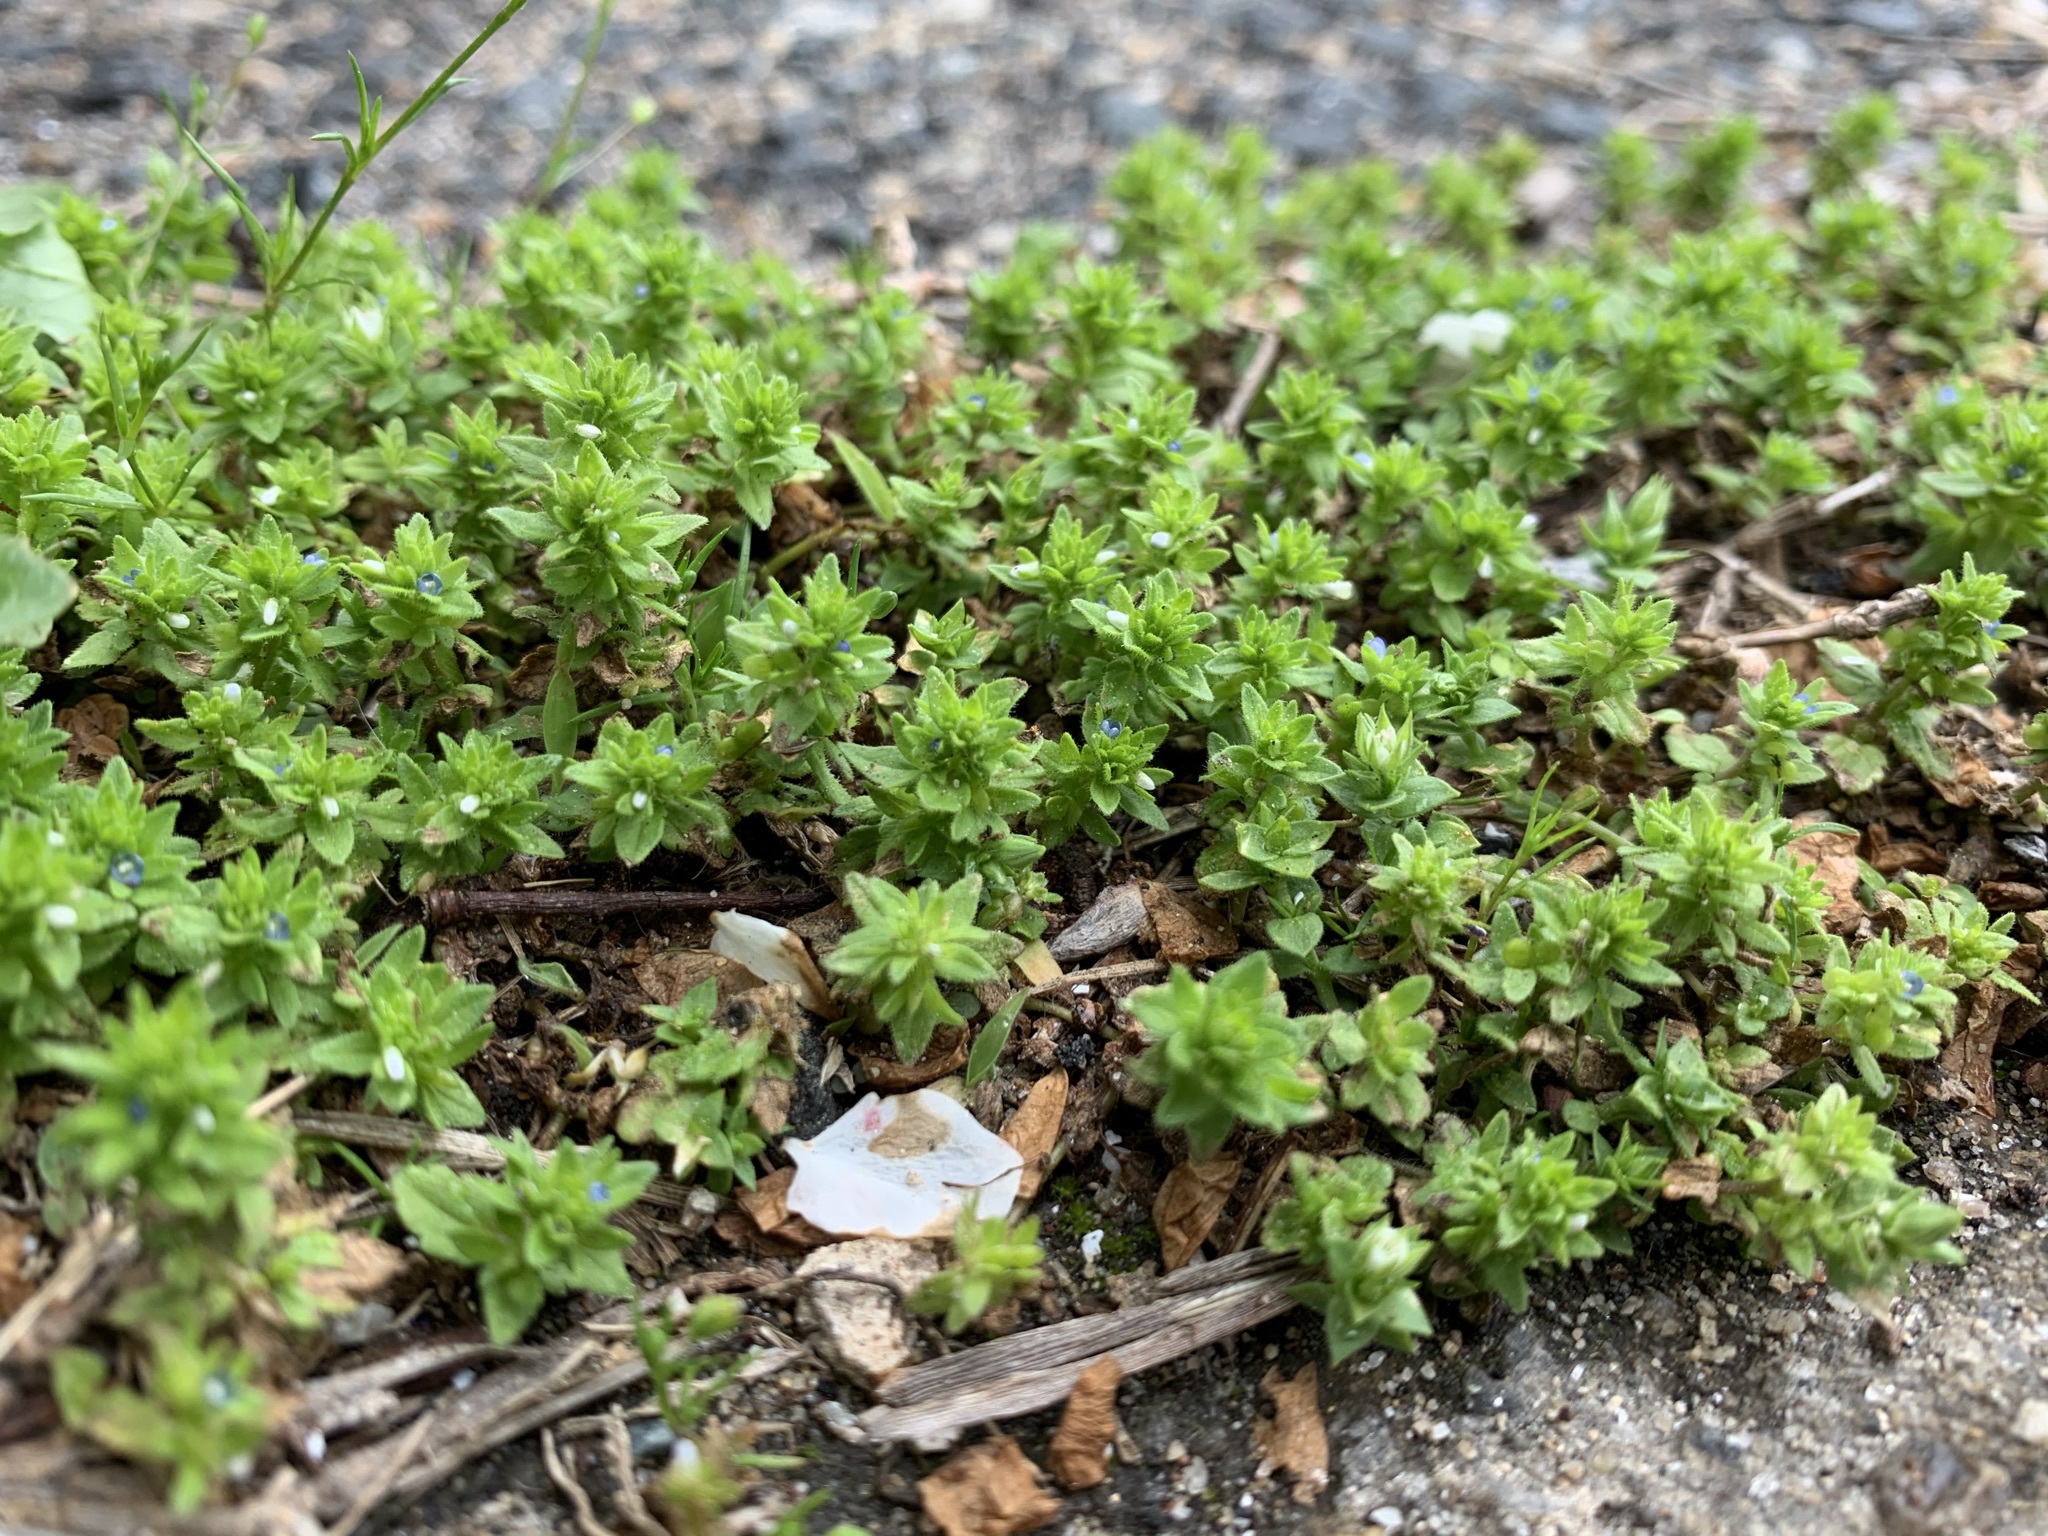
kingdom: Plantae
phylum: Tracheophyta
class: Magnoliopsida
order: Lamiales
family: Plantaginaceae
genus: Veronica
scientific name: Veronica arvensis
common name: Corn speedwell
